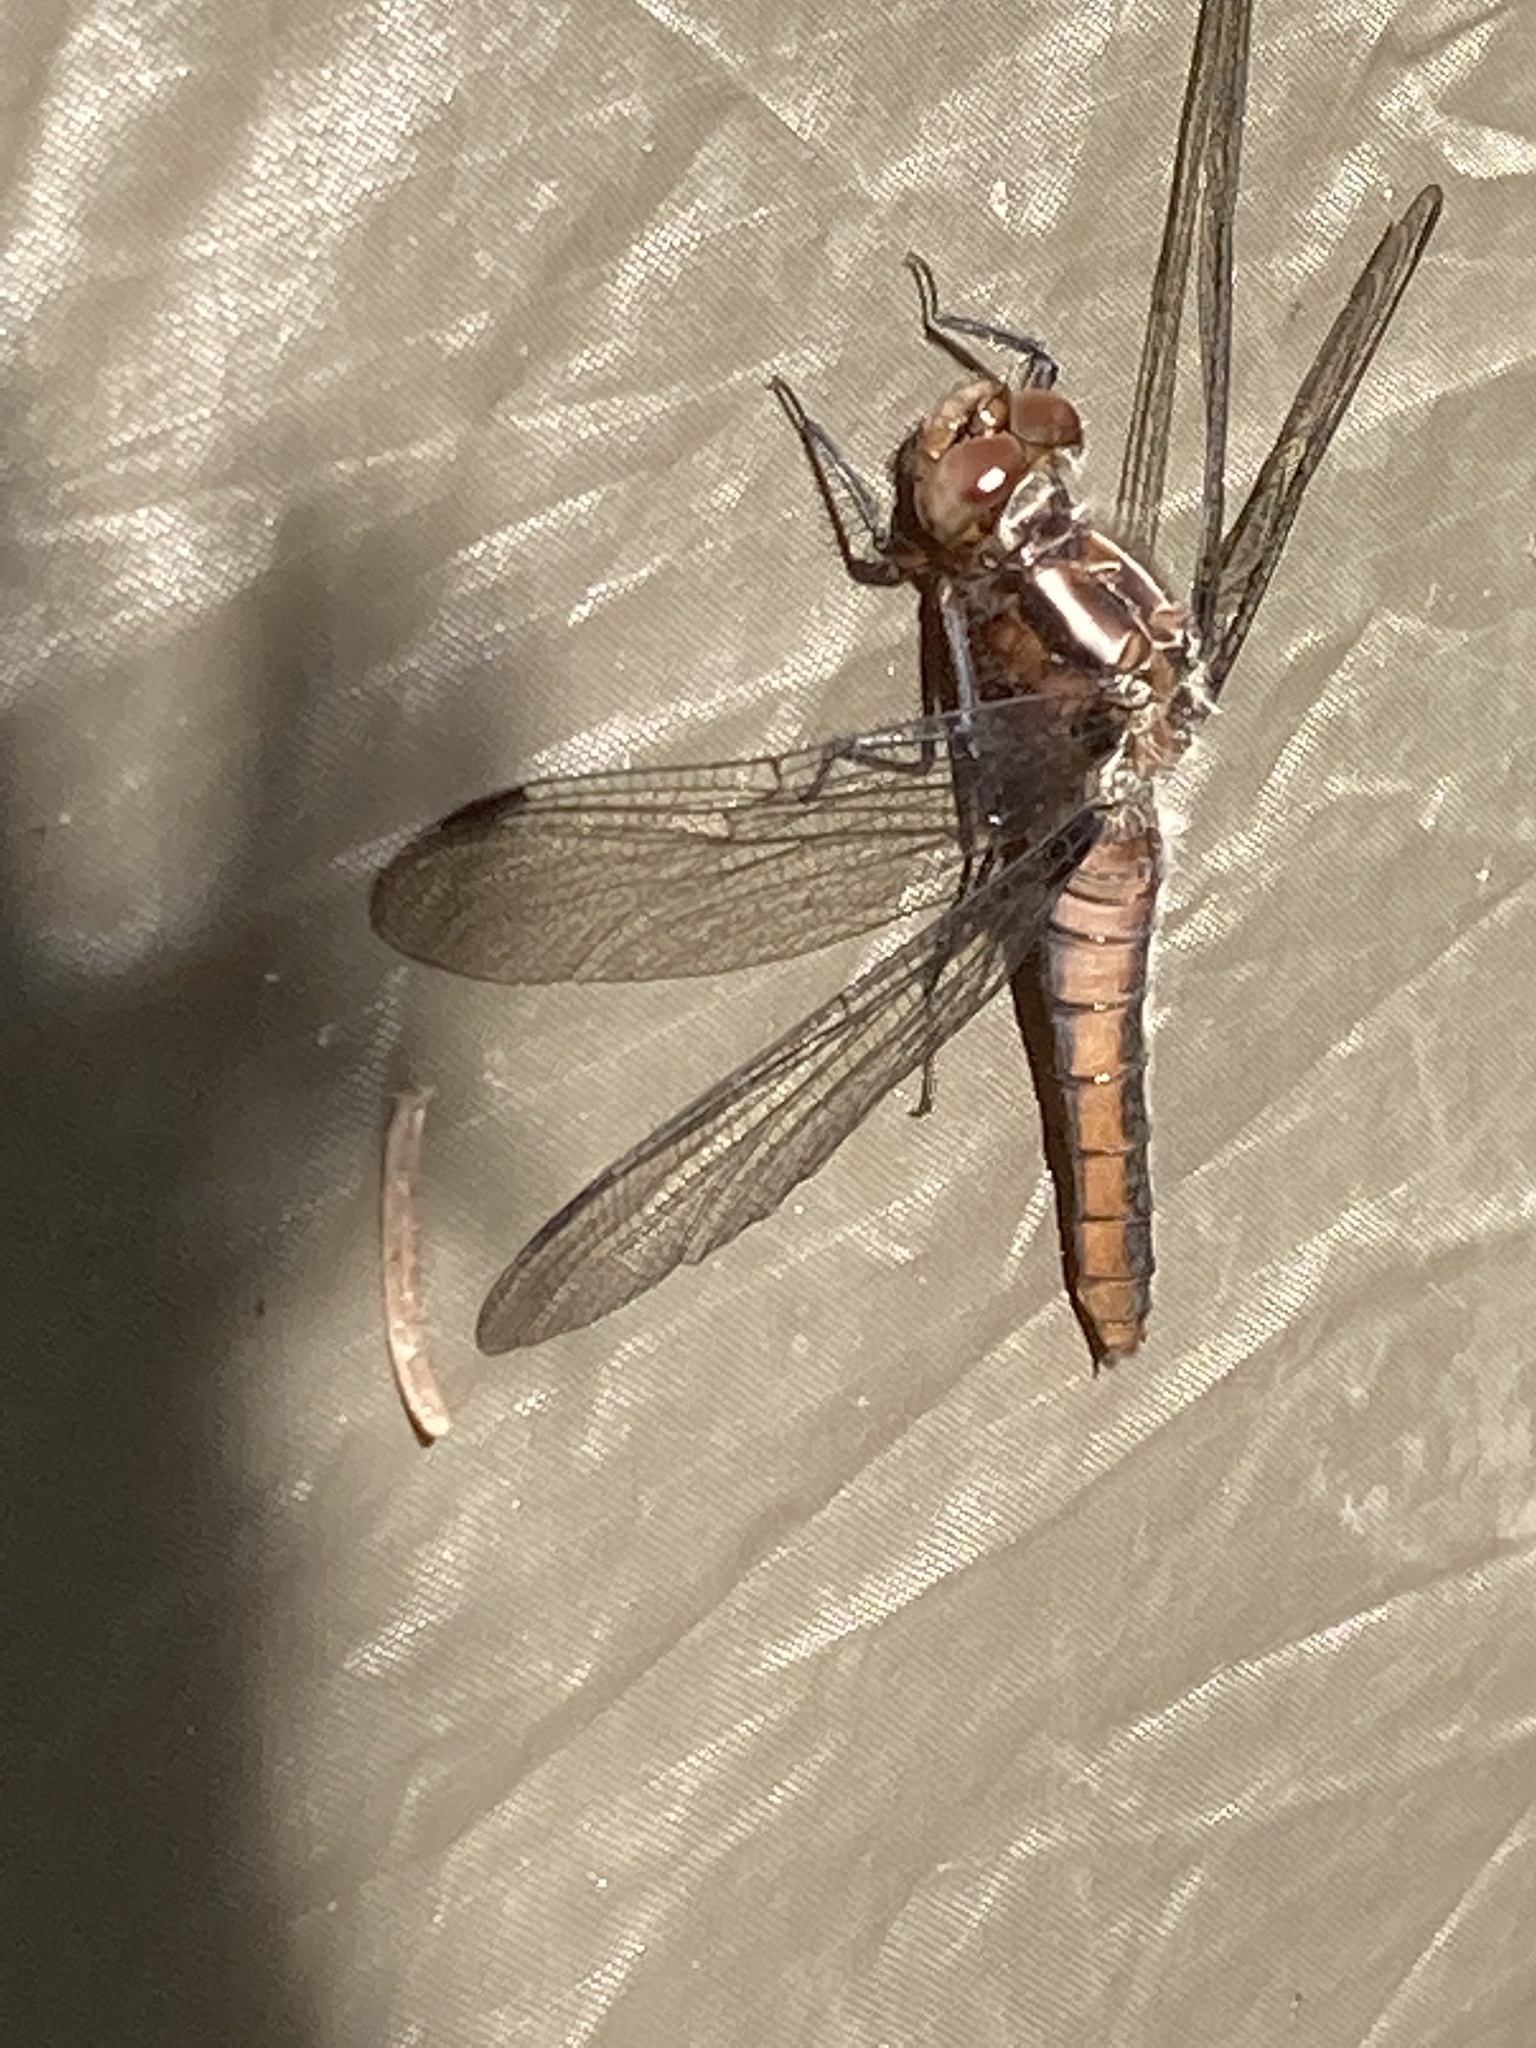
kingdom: Animalia
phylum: Arthropoda
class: Insecta
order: Odonata
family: Libellulidae
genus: Ladona
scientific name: Ladona julia
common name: Chalk-fronted corporal
